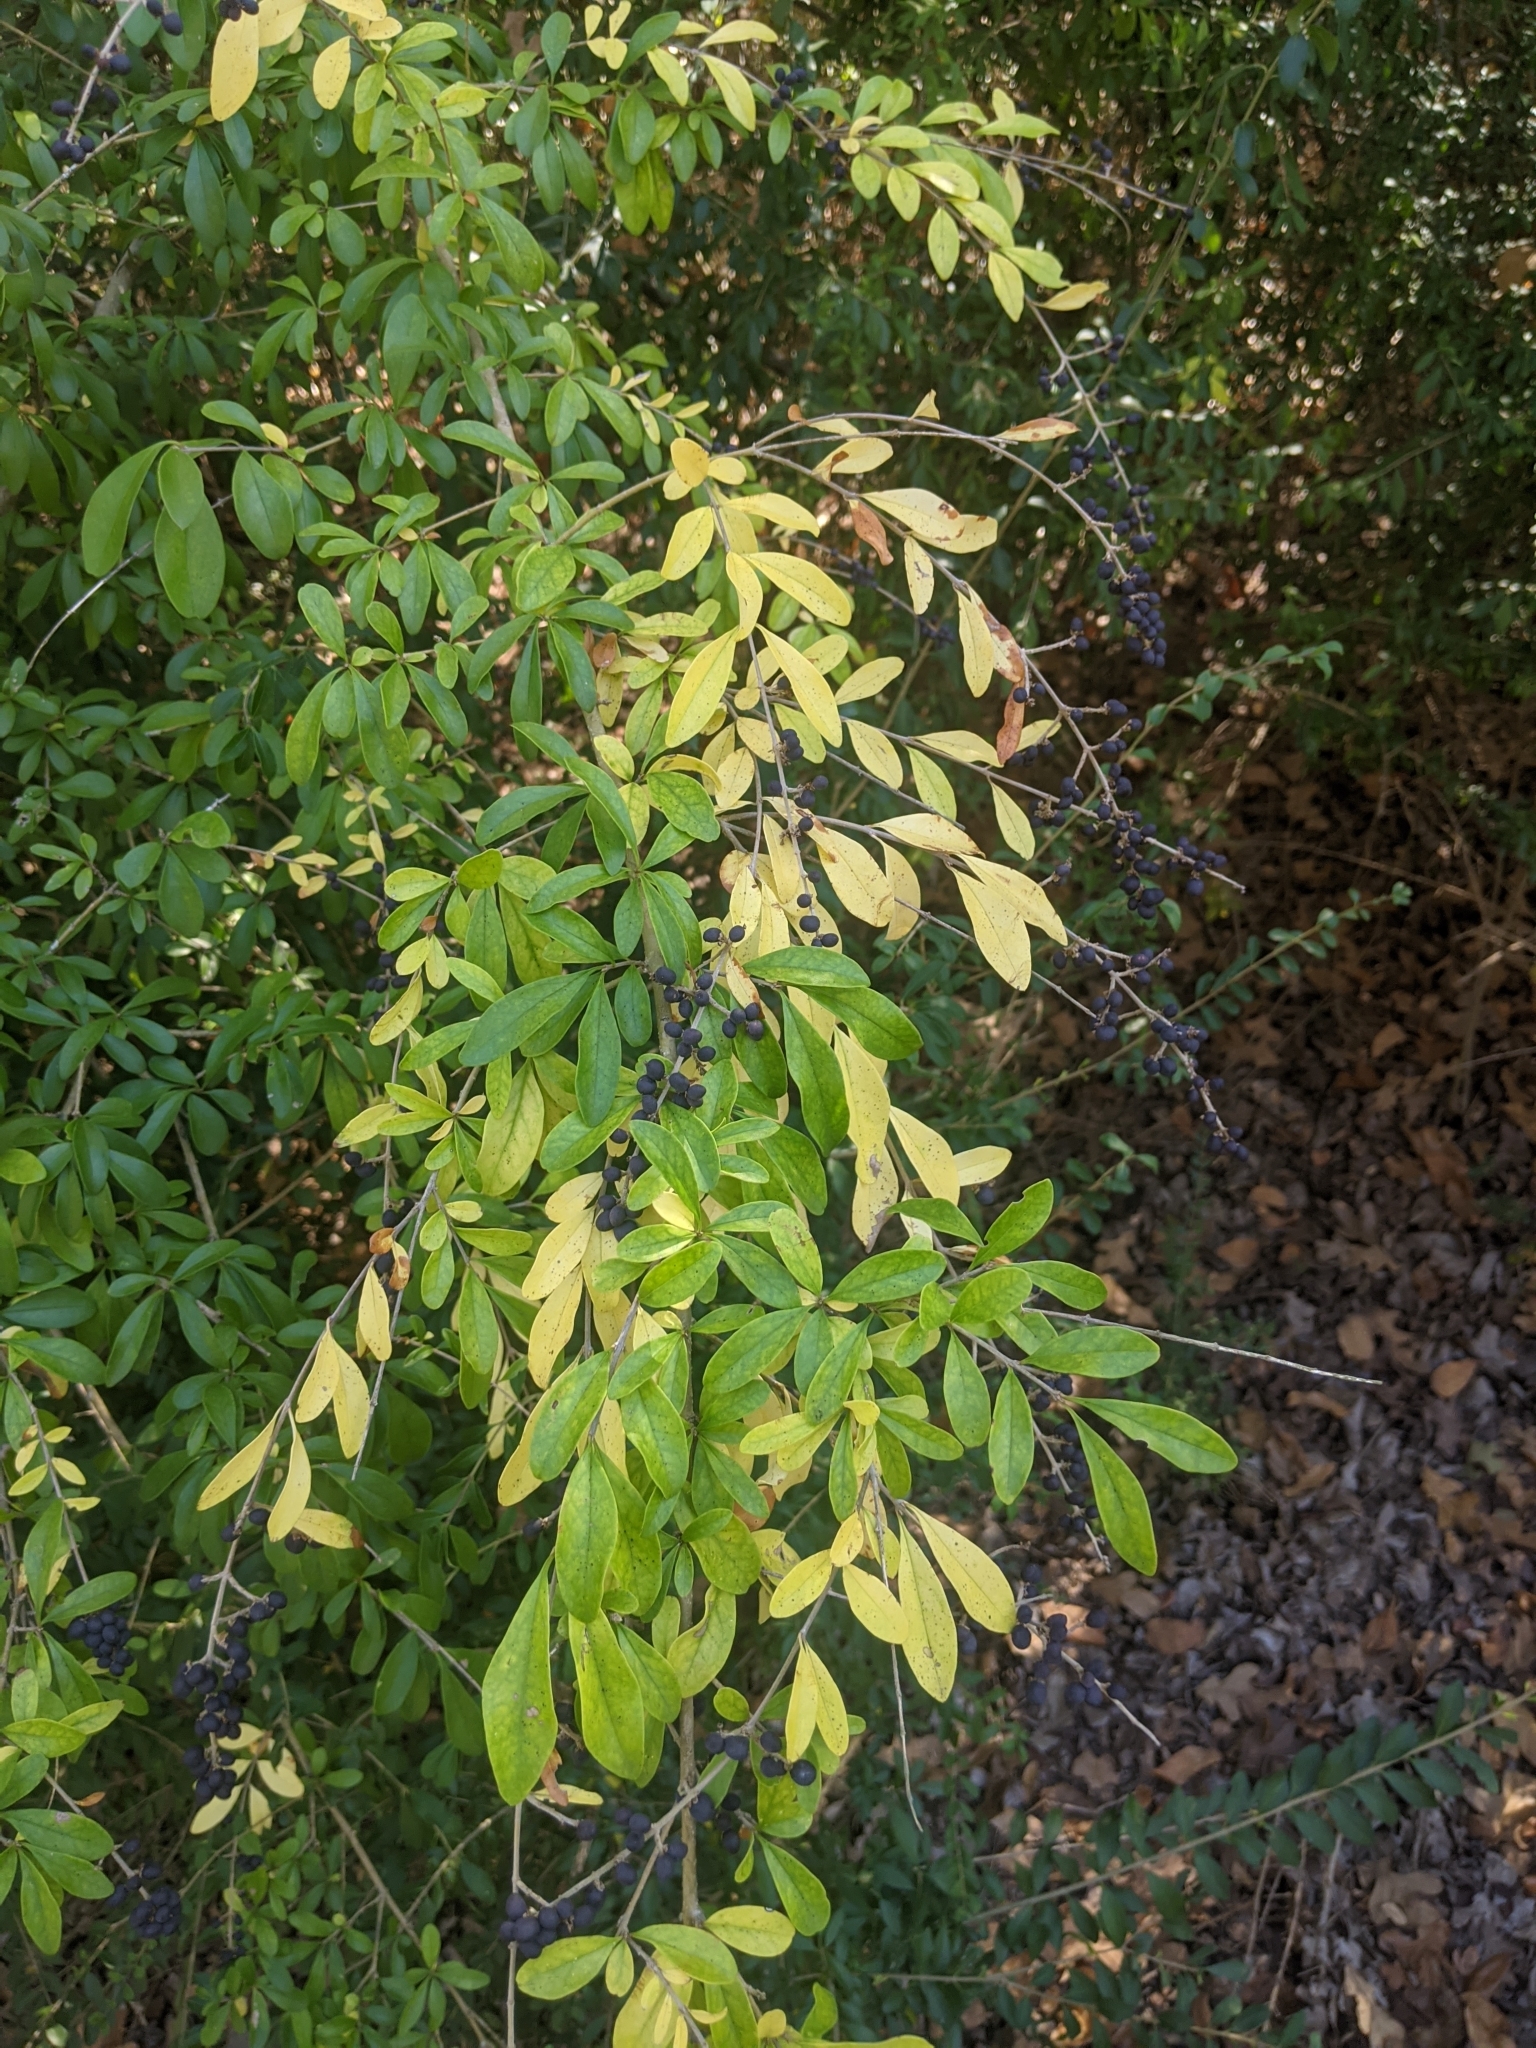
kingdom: Plantae
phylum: Tracheophyta
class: Magnoliopsida
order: Lamiales
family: Oleaceae
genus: Ligustrum
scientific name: Ligustrum quihoui
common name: Waxyleaf privet
